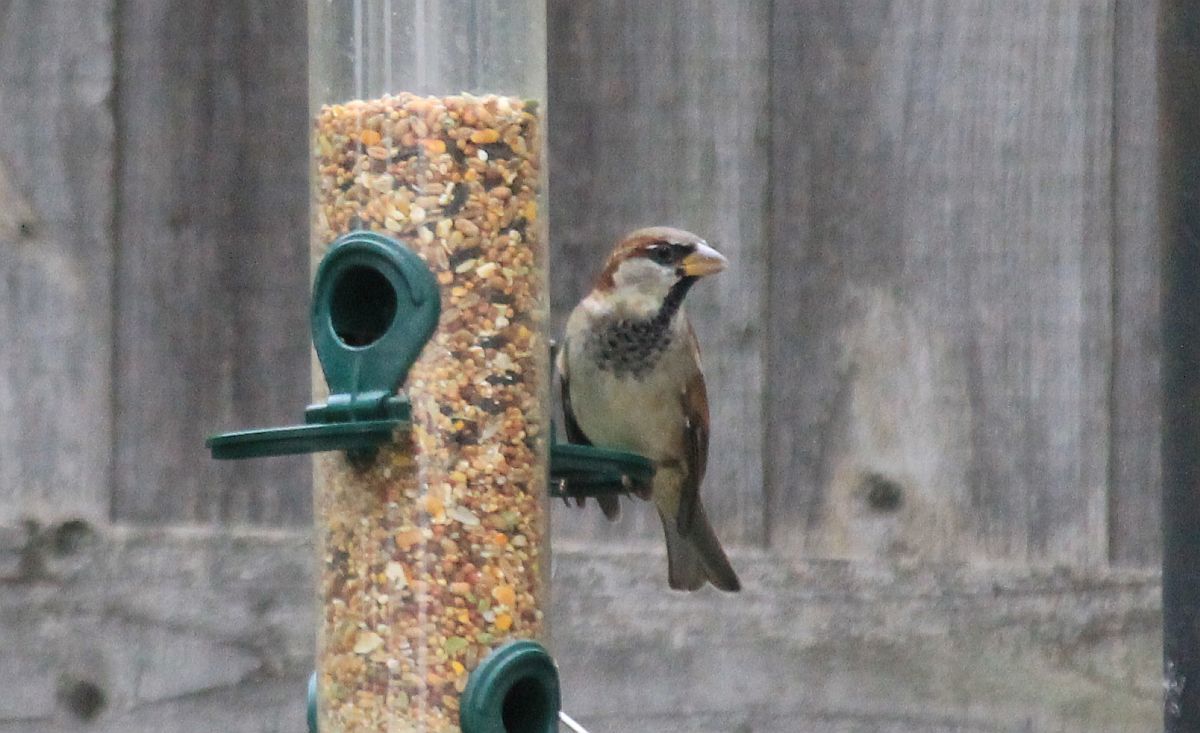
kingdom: Animalia
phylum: Chordata
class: Aves
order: Passeriformes
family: Passeridae
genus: Passer
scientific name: Passer domesticus
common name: House sparrow
